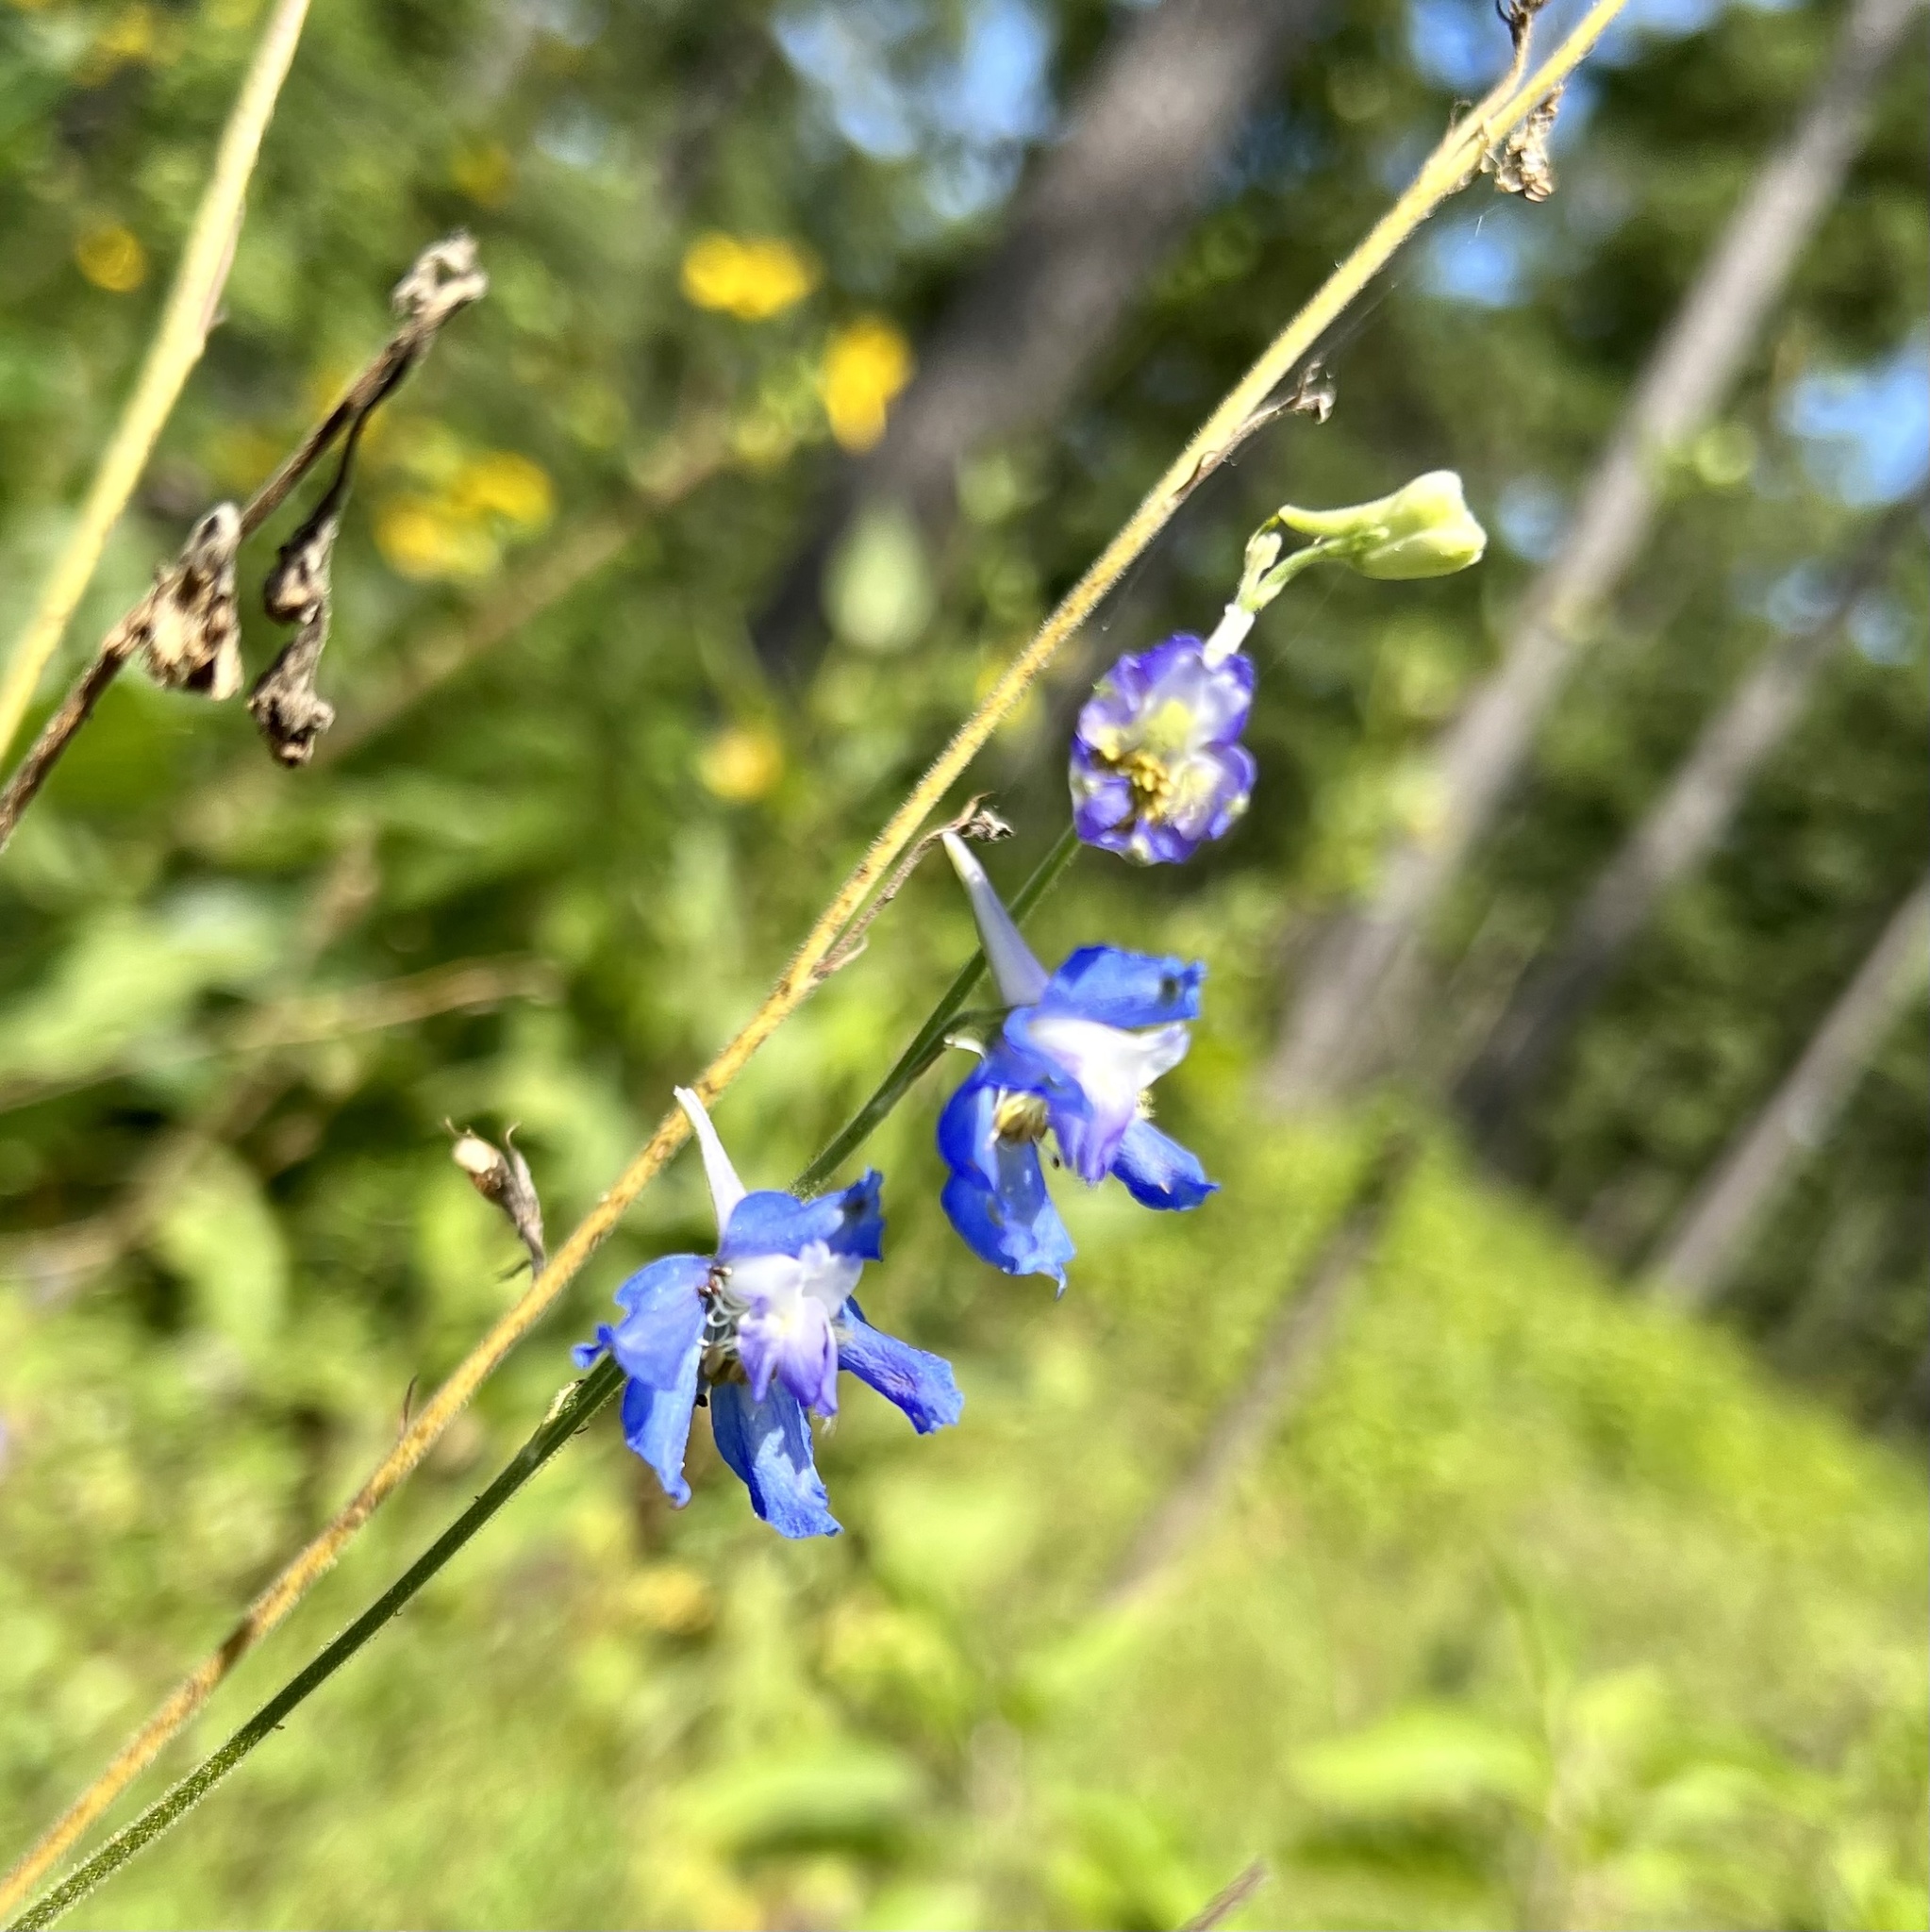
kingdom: Plantae
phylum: Tracheophyta
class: Magnoliopsida
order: Ranunculales
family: Ranunculaceae
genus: Delphinium
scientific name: Delphinium carolinianum
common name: Carolina larkspur
